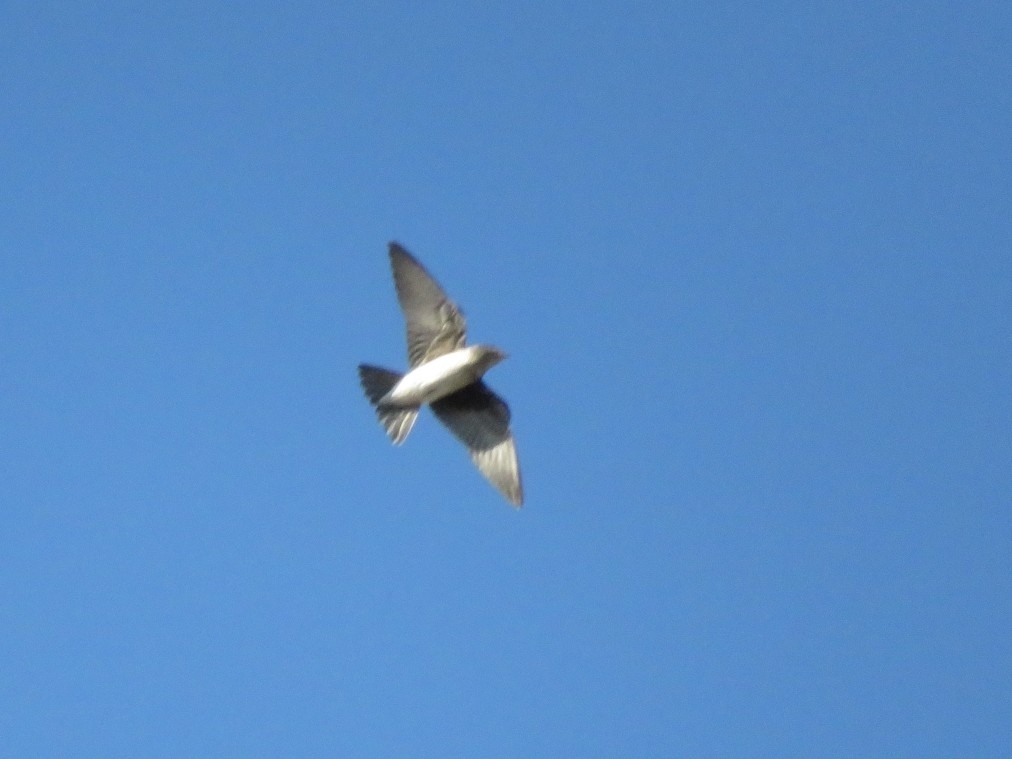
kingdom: Animalia
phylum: Chordata
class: Aves
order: Passeriformes
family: Hirundinidae
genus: Progne
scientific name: Progne chalybea
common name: Grey-breasted martin
